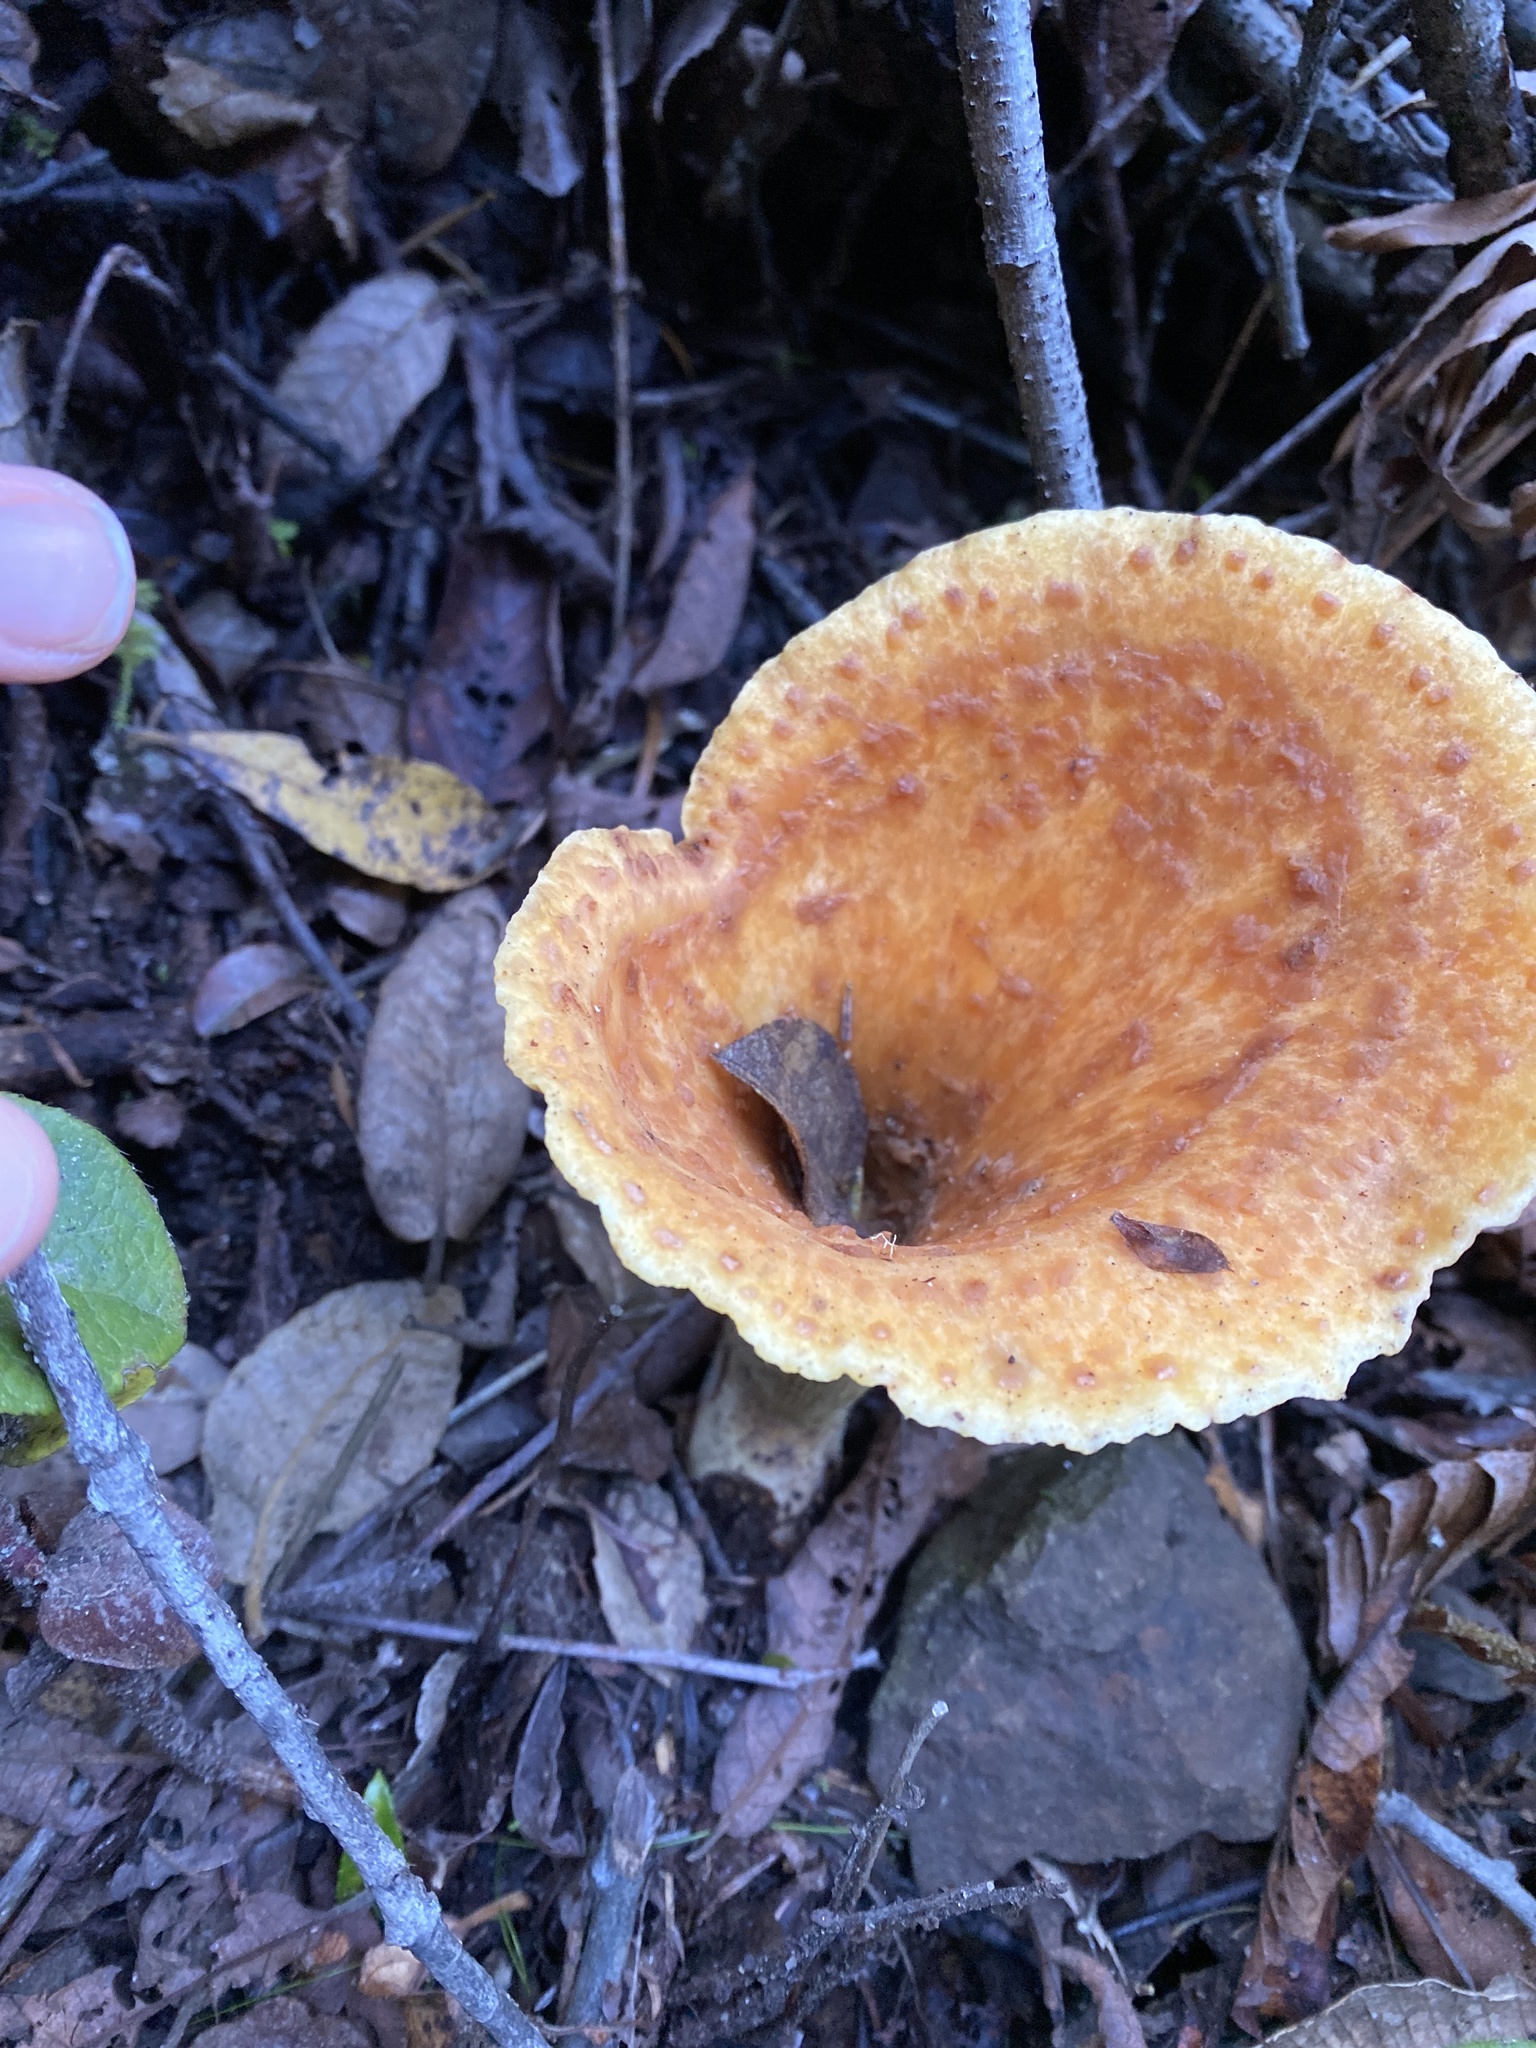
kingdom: Fungi
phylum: Basidiomycota
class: Agaricomycetes
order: Gomphales
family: Gomphaceae
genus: Turbinellus
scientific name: Turbinellus floccosus
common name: Scaly chanterelle
